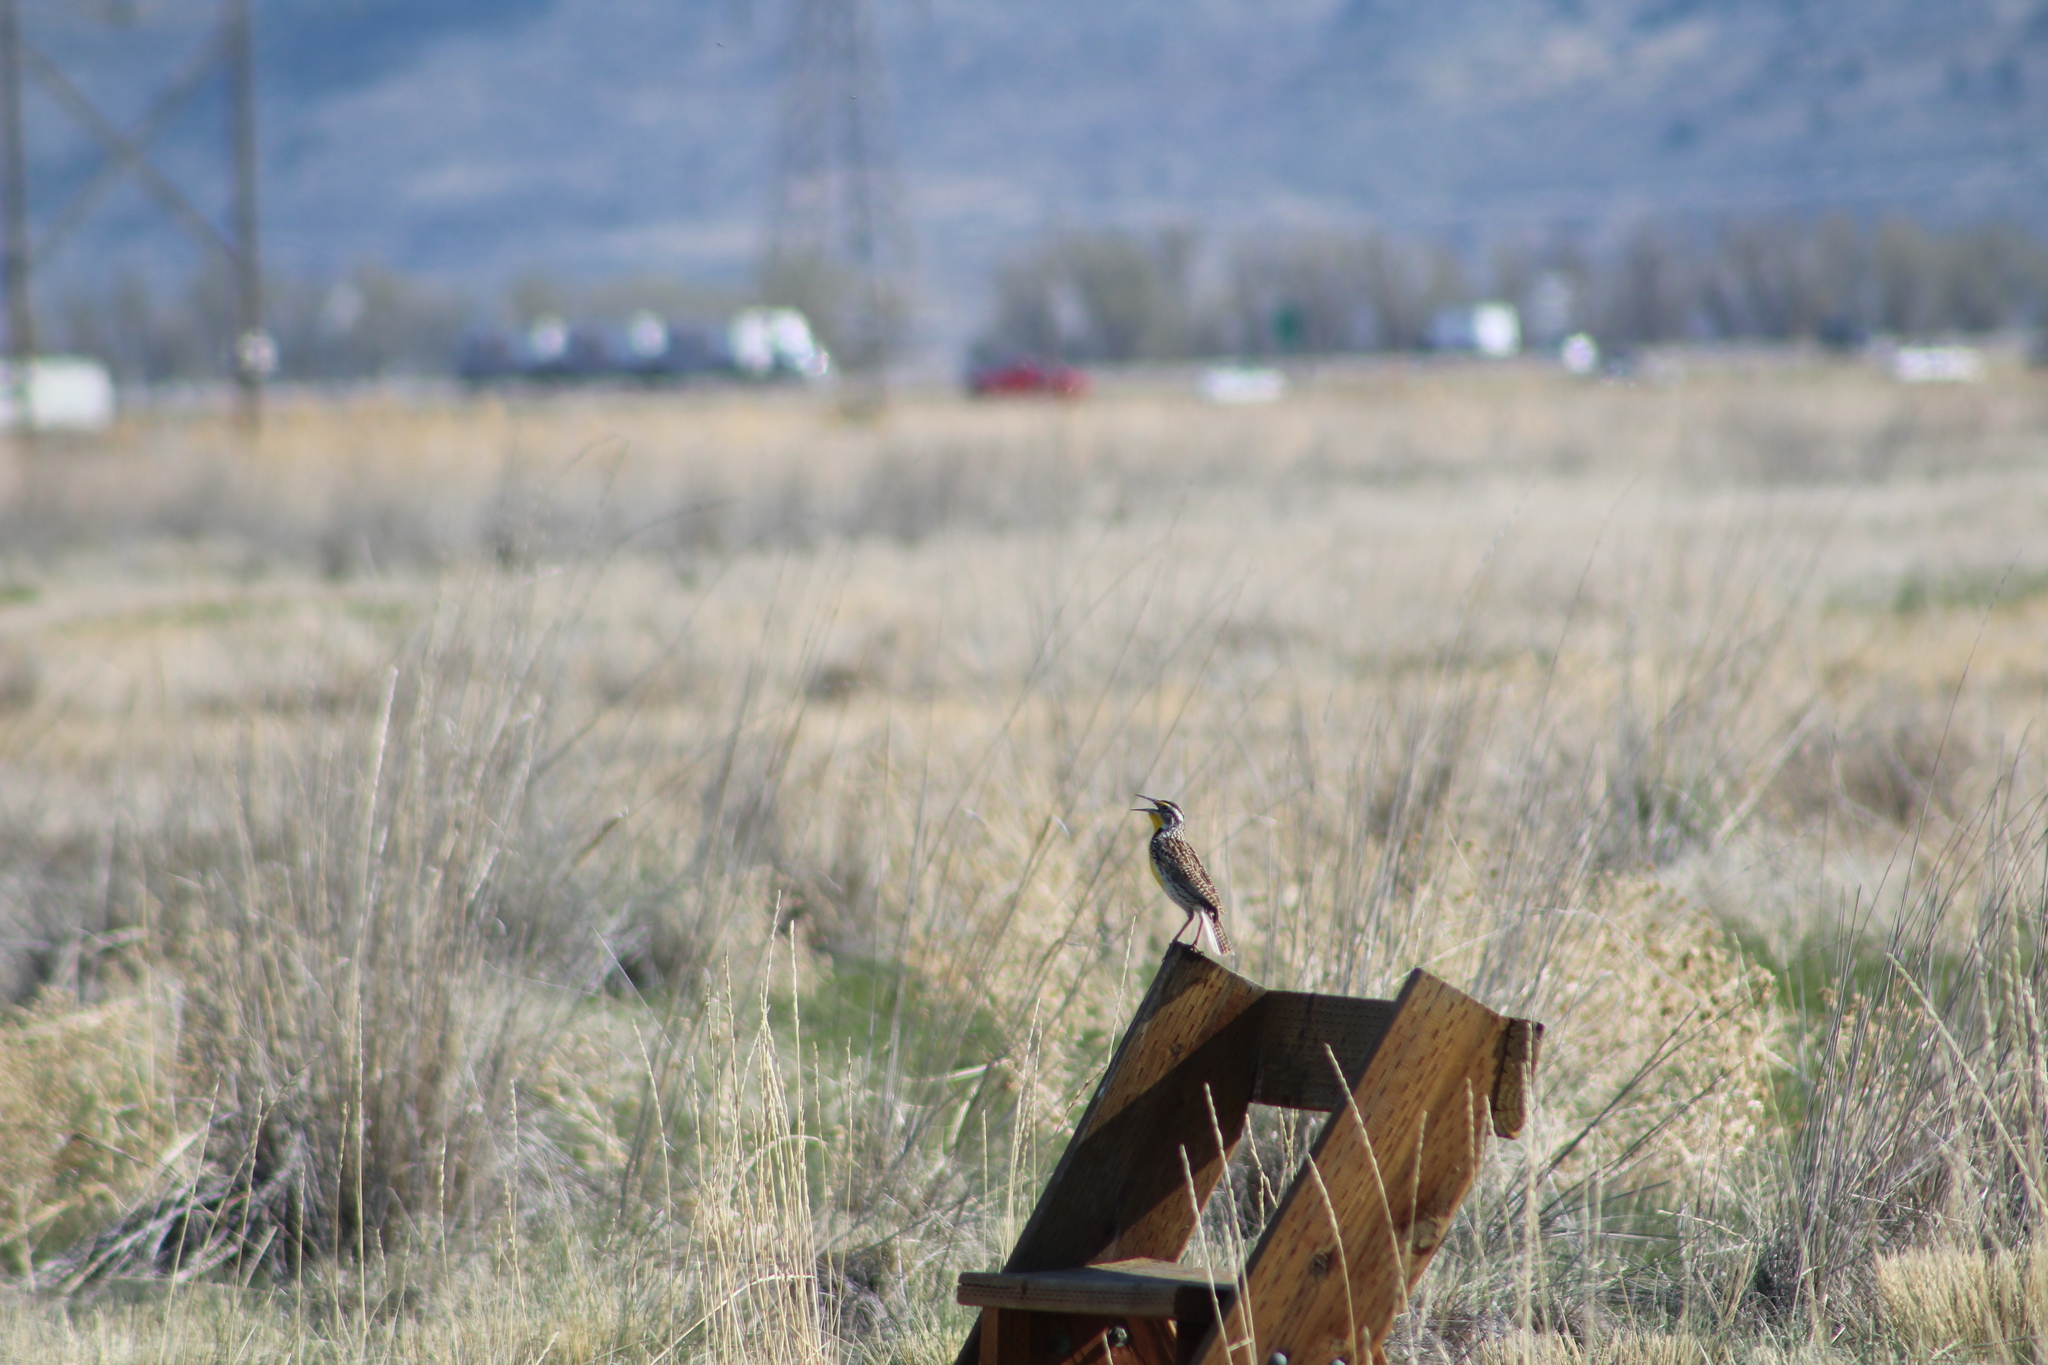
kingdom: Animalia
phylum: Chordata
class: Aves
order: Passeriformes
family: Icteridae
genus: Sturnella
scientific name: Sturnella neglecta
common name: Western meadowlark
